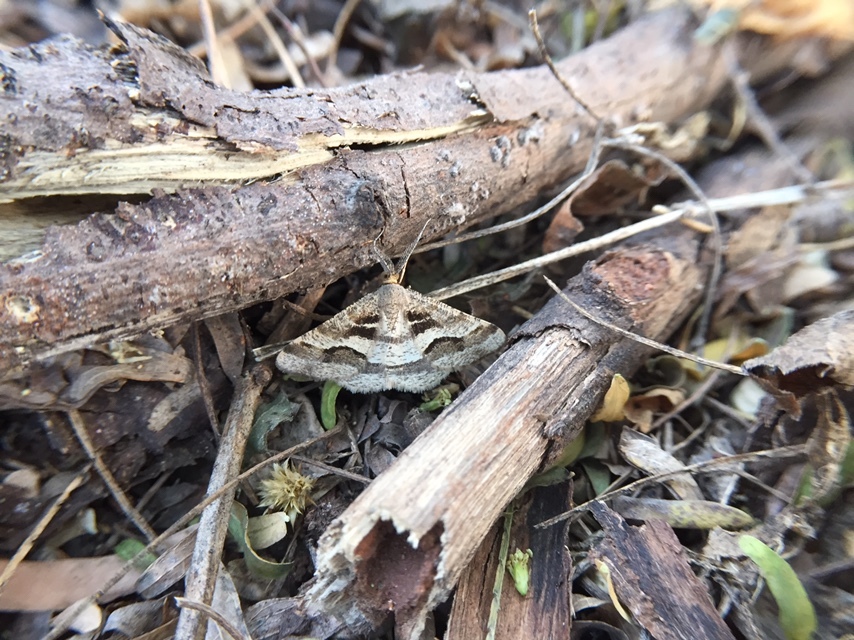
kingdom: Animalia
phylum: Arthropoda
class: Insecta
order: Lepidoptera
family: Geometridae
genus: Isturgia
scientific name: Isturgia disputaria
